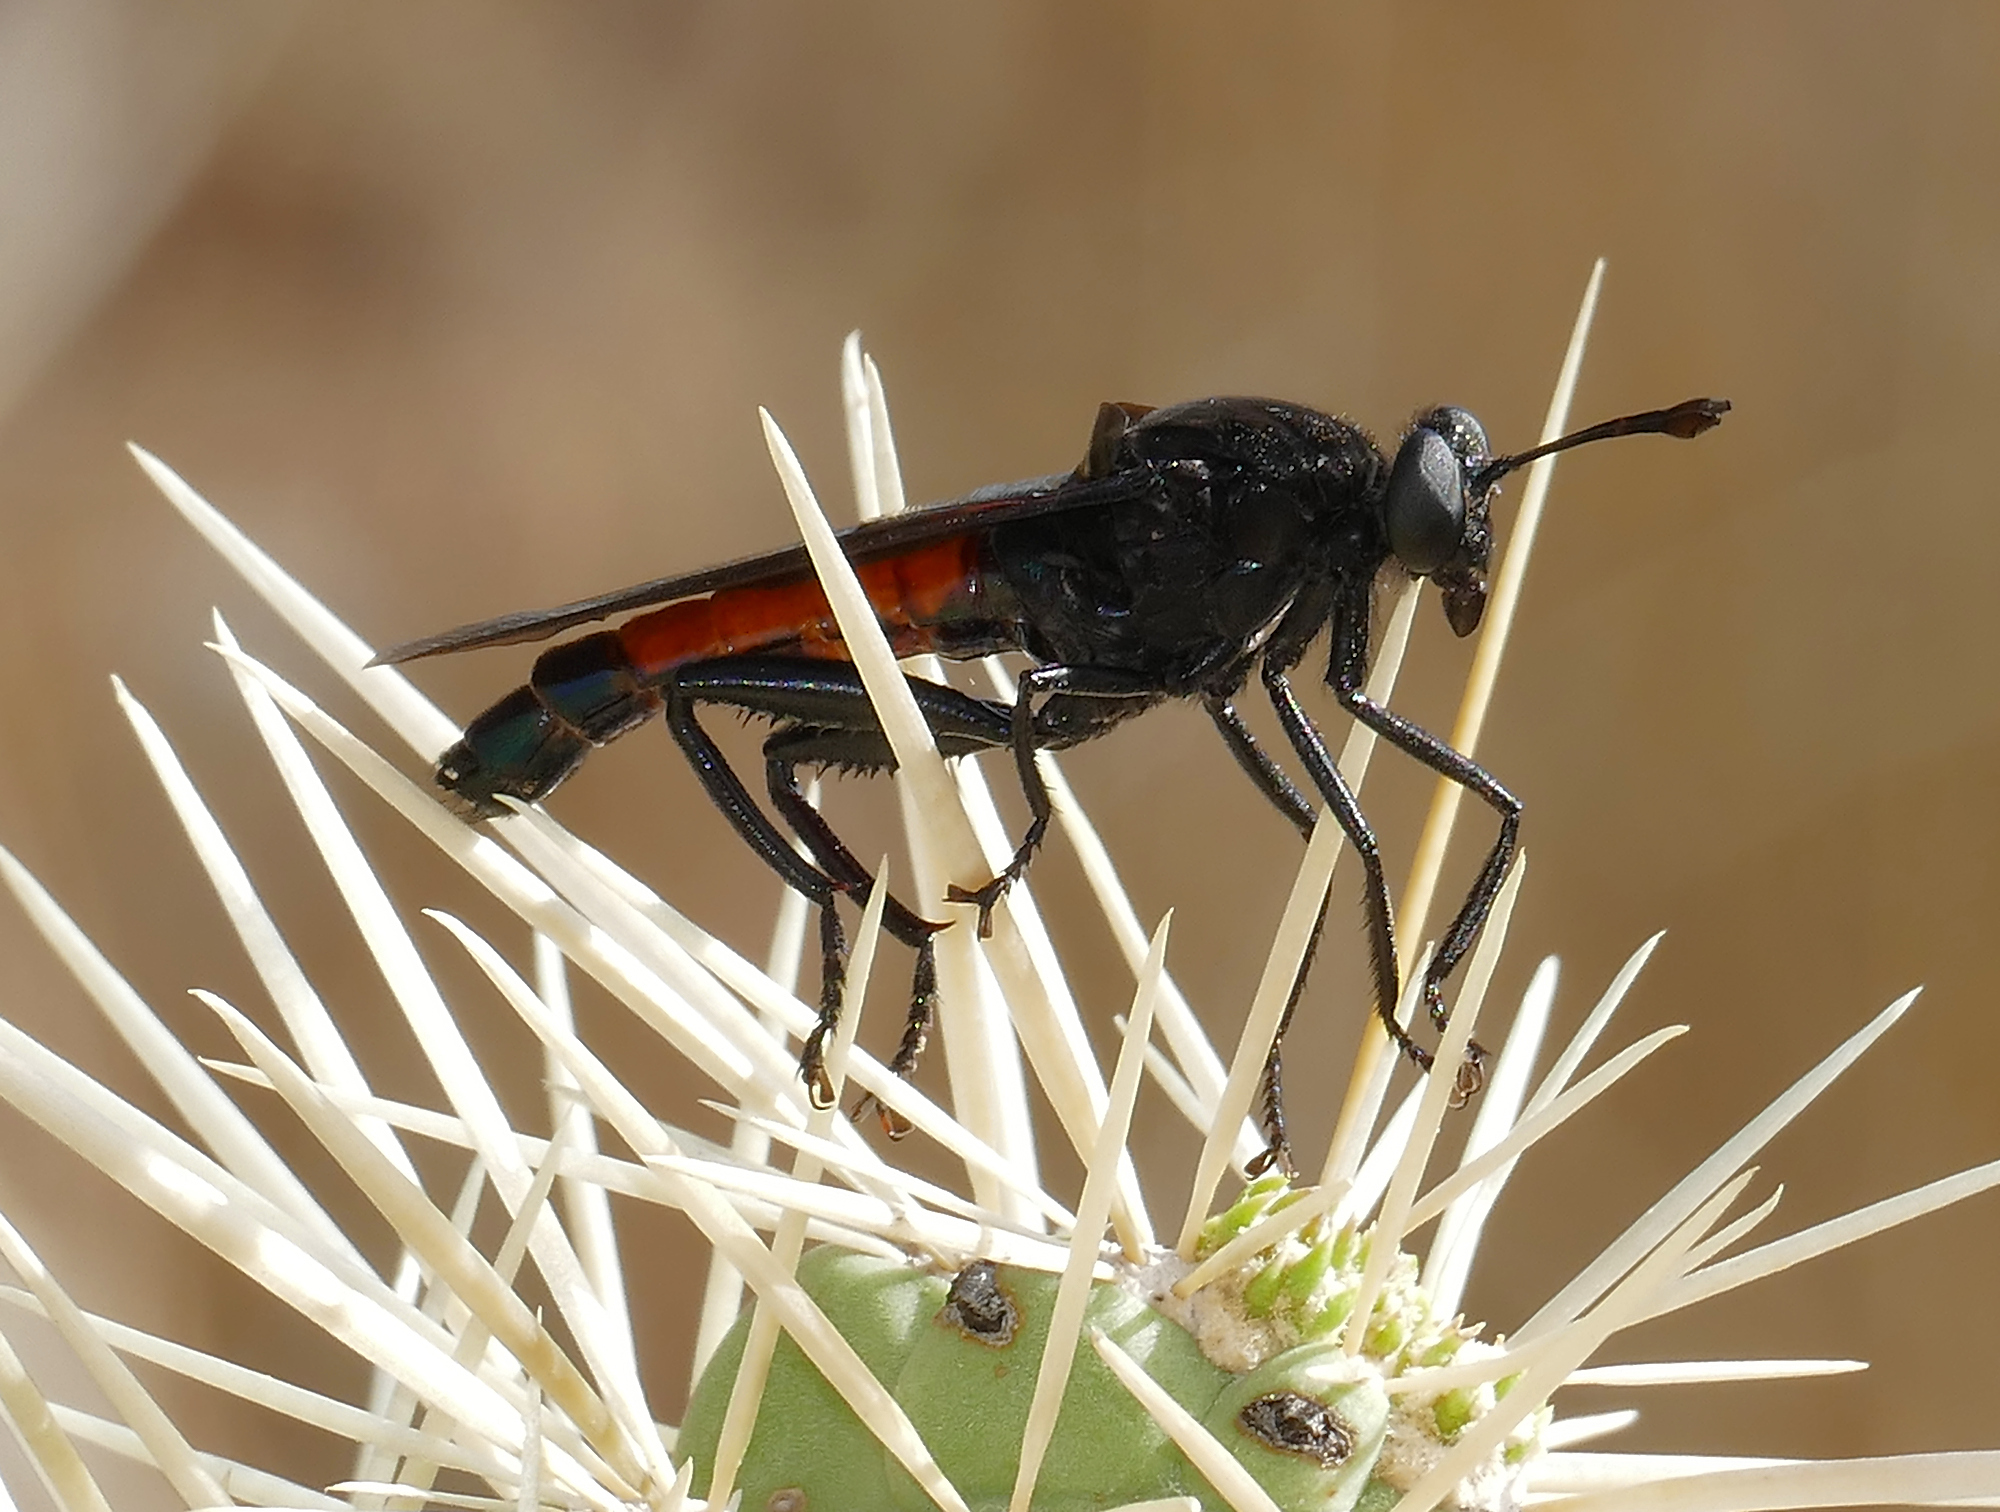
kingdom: Animalia
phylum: Arthropoda
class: Insecta
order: Diptera
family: Mydidae
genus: Mydas
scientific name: Mydas ventralis
